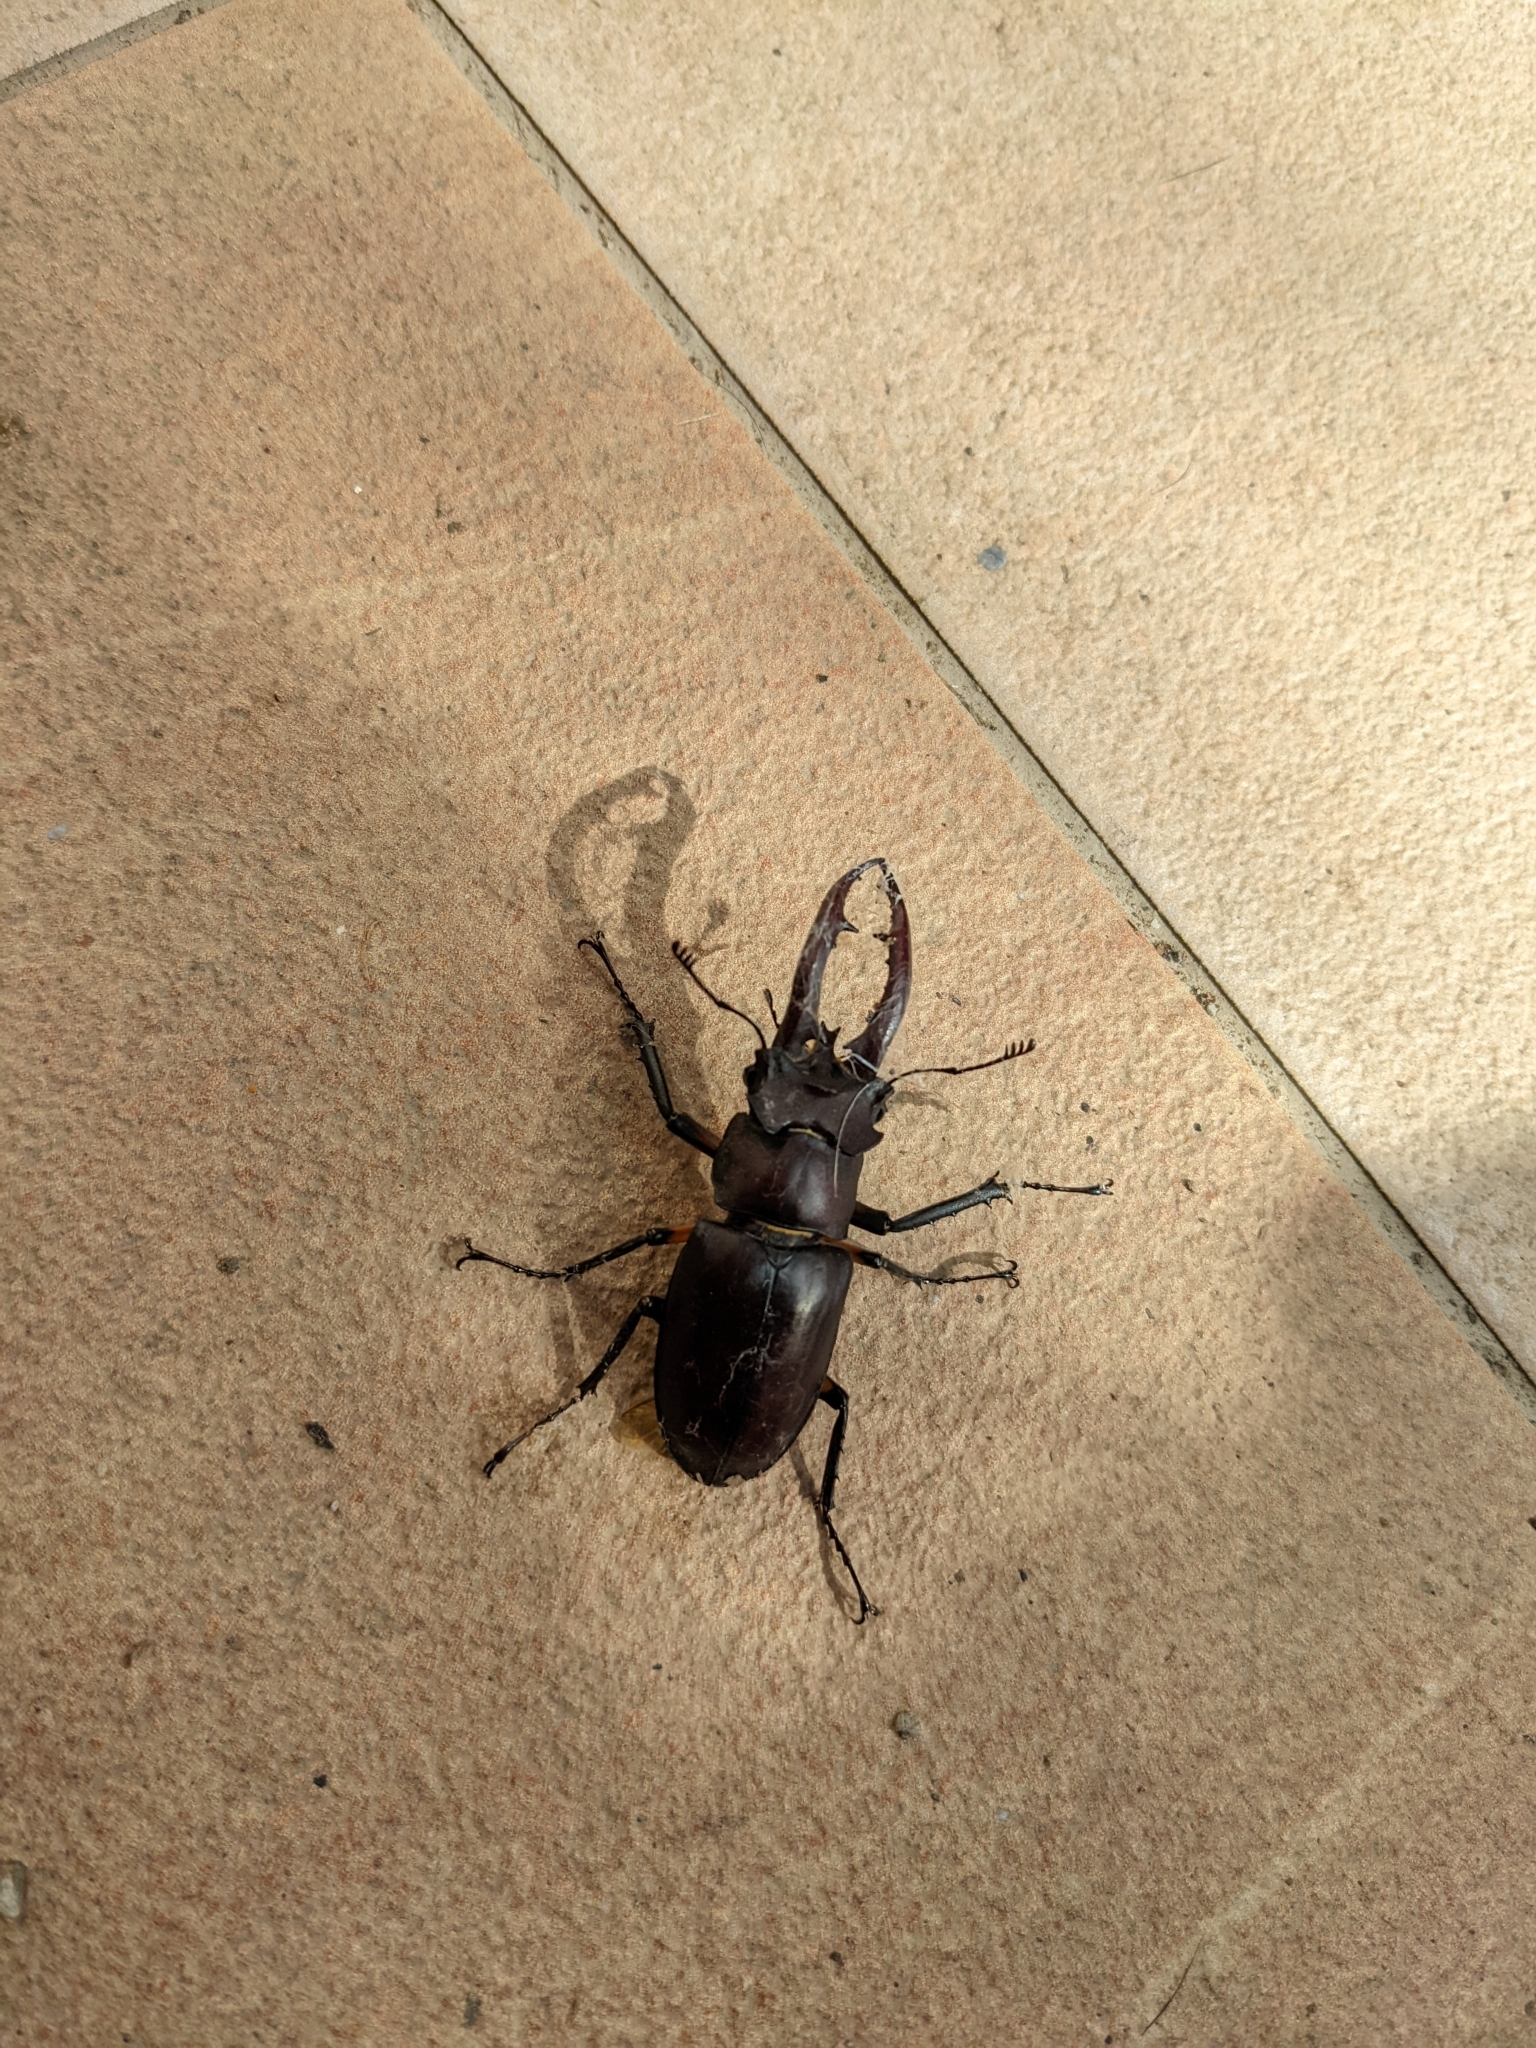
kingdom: Animalia
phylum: Arthropoda
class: Insecta
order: Coleoptera
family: Lucanidae
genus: Lucanus
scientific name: Lucanus formosanus
